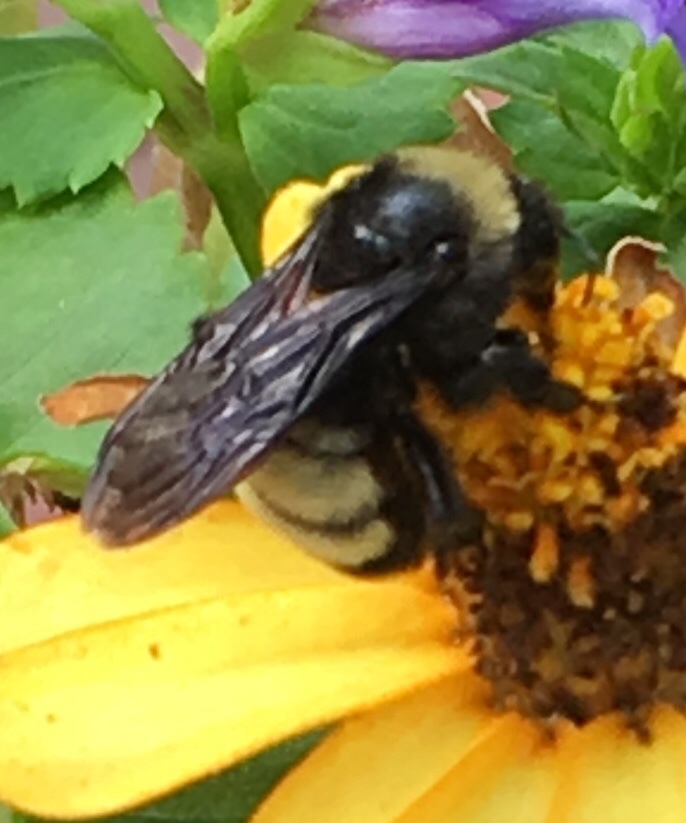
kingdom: Animalia
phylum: Arthropoda
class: Insecta
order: Hymenoptera
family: Apidae
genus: Bombus
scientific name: Bombus pensylvanicus
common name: Bumble bee
